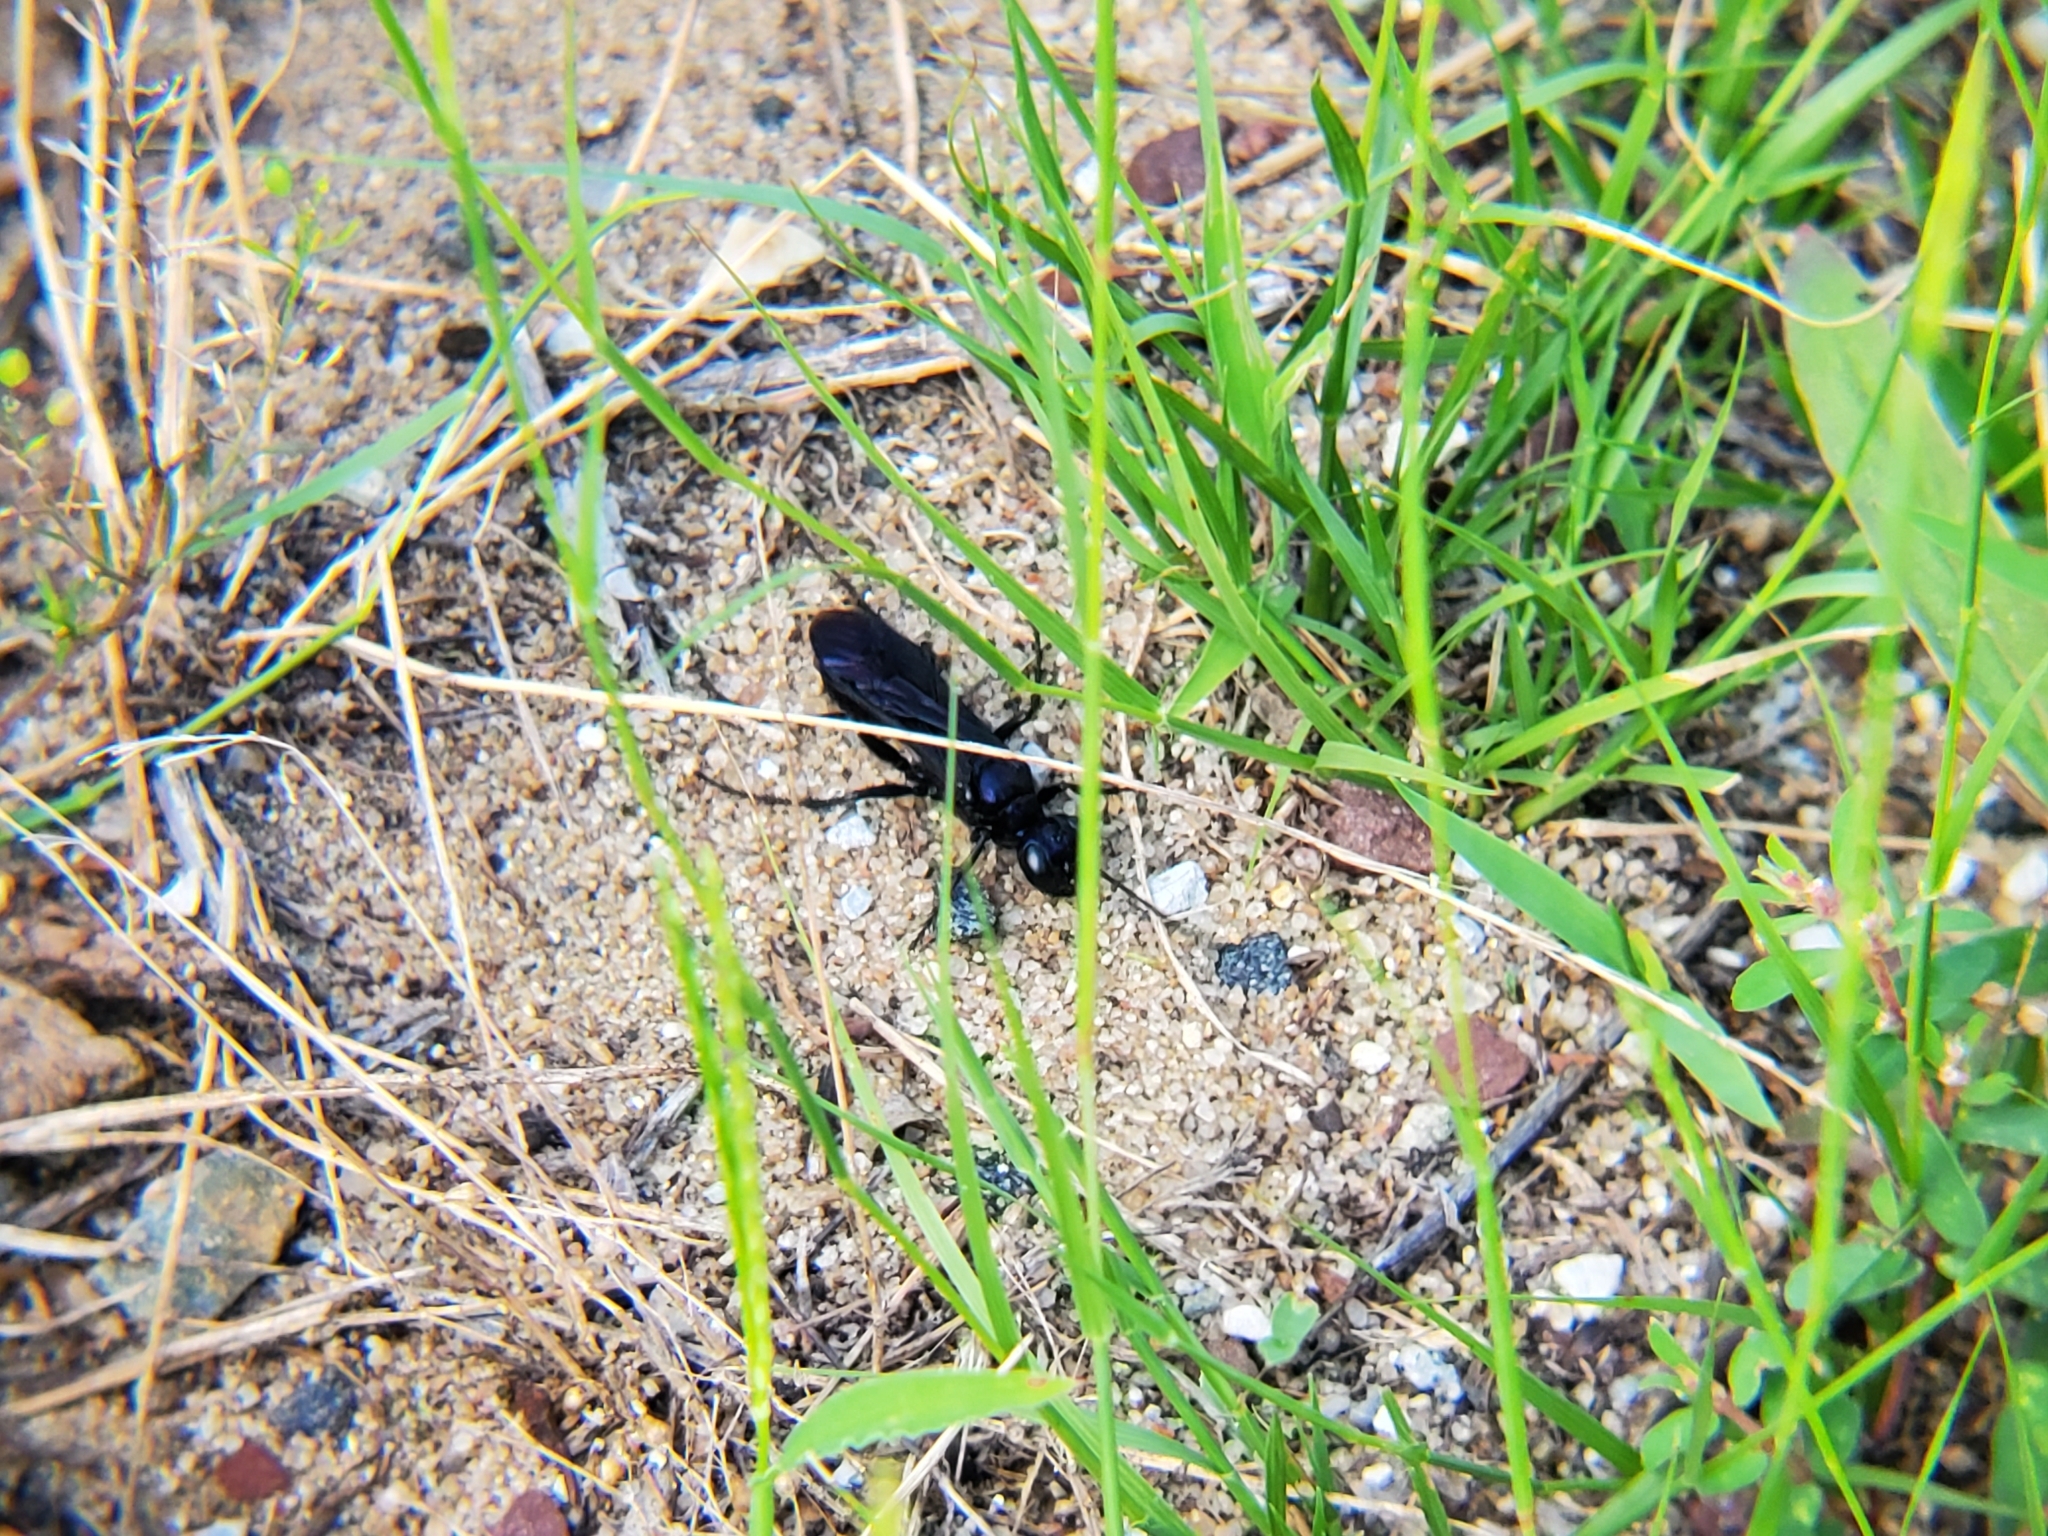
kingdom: Animalia
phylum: Arthropoda
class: Insecta
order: Hymenoptera
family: Sphecidae
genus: Chlorion
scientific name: Chlorion aerarium
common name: Steel-blue cricket hunter
